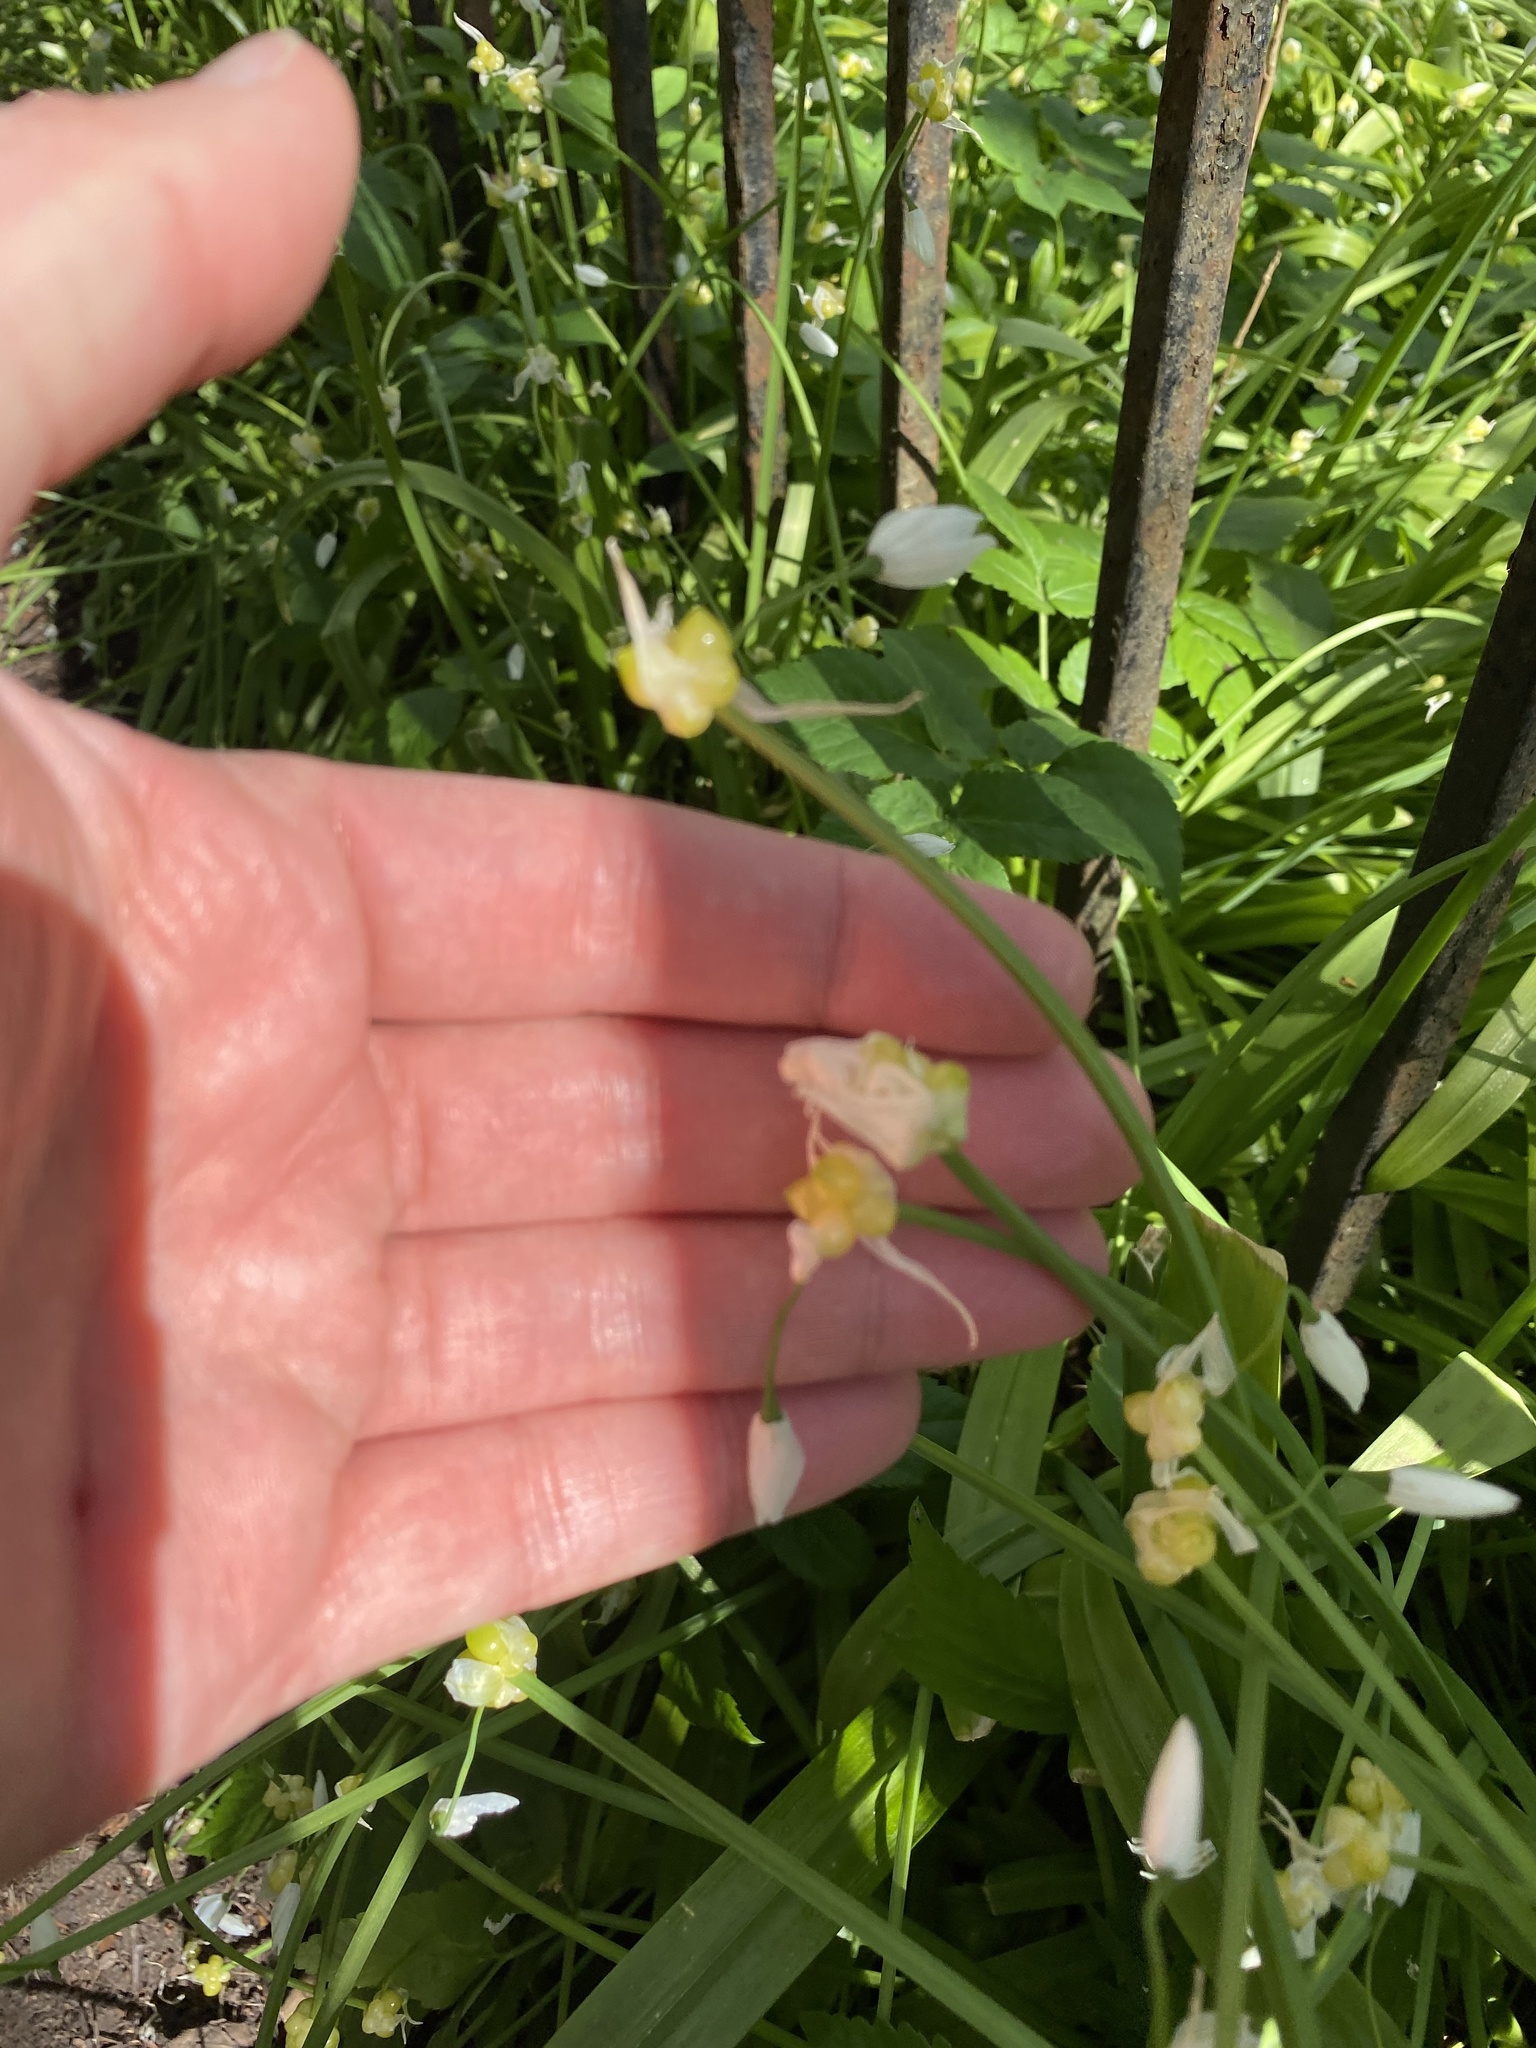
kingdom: Plantae
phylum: Tracheophyta
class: Liliopsida
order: Asparagales
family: Amaryllidaceae
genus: Allium
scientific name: Allium paradoxum
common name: Few-flowered garlic
